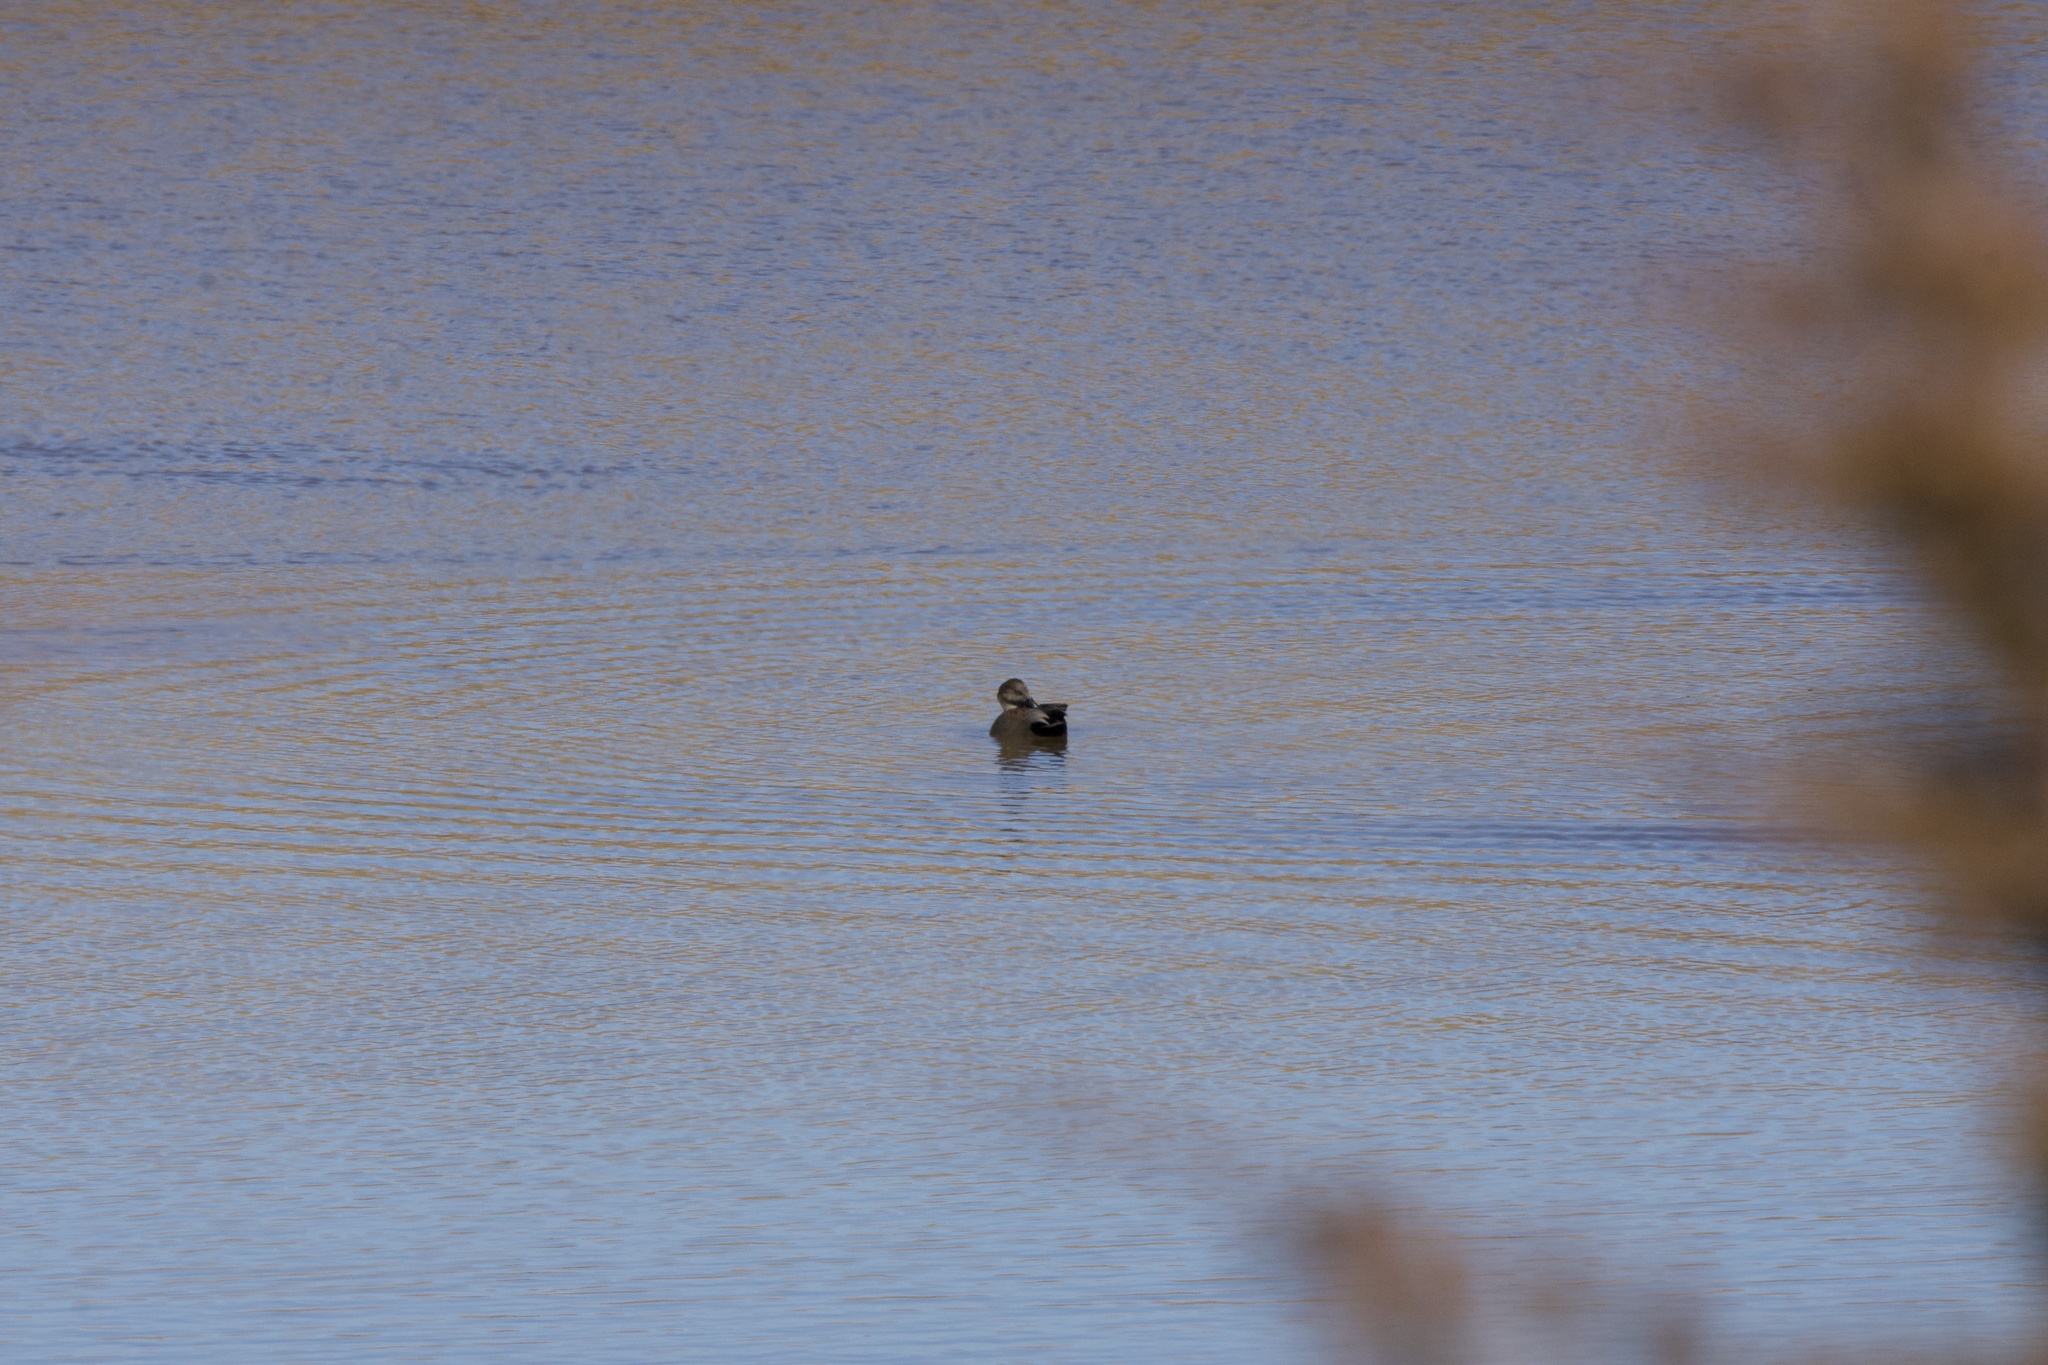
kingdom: Animalia
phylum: Chordata
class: Aves
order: Anseriformes
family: Anatidae
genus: Mareca
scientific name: Mareca strepera
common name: Gadwall
